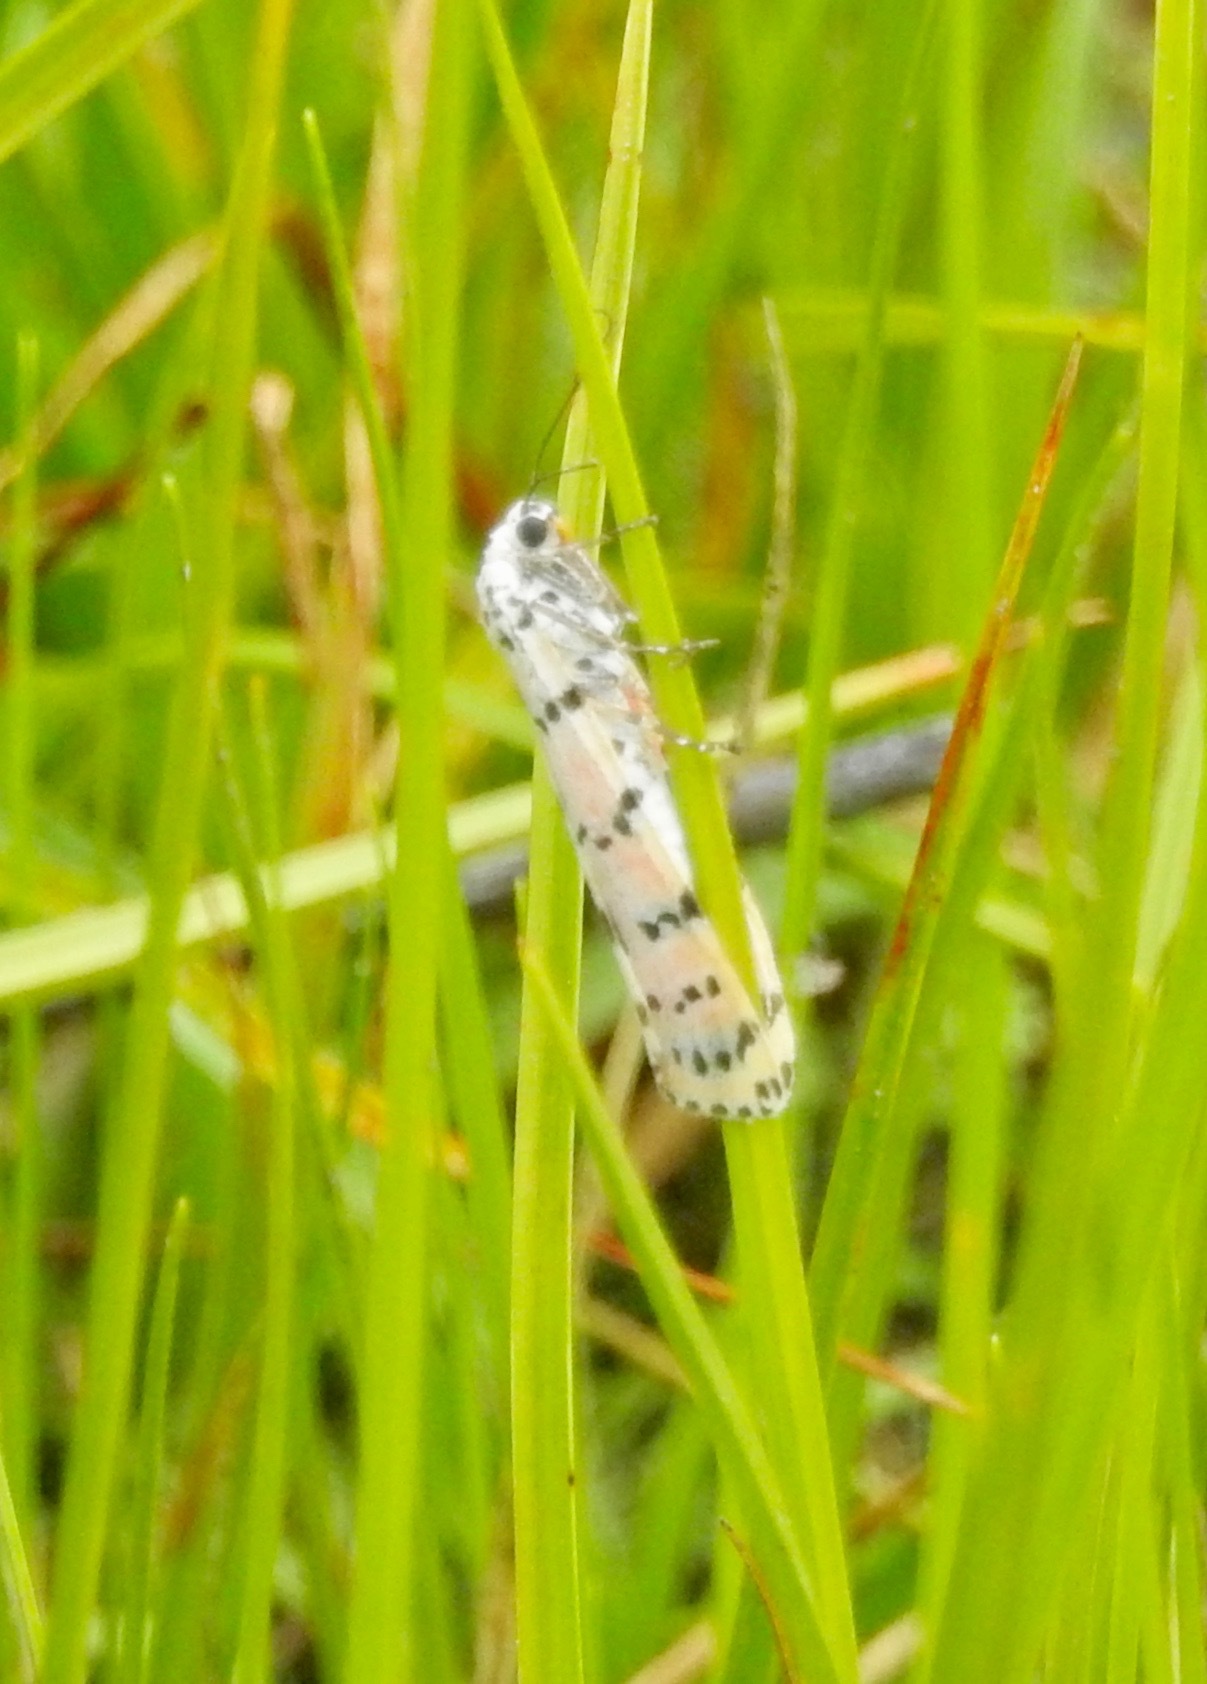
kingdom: Animalia
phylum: Arthropoda
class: Insecta
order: Lepidoptera
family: Erebidae
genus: Utetheisa
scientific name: Utetheisa ornatrix
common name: Beautiful utetheisa
